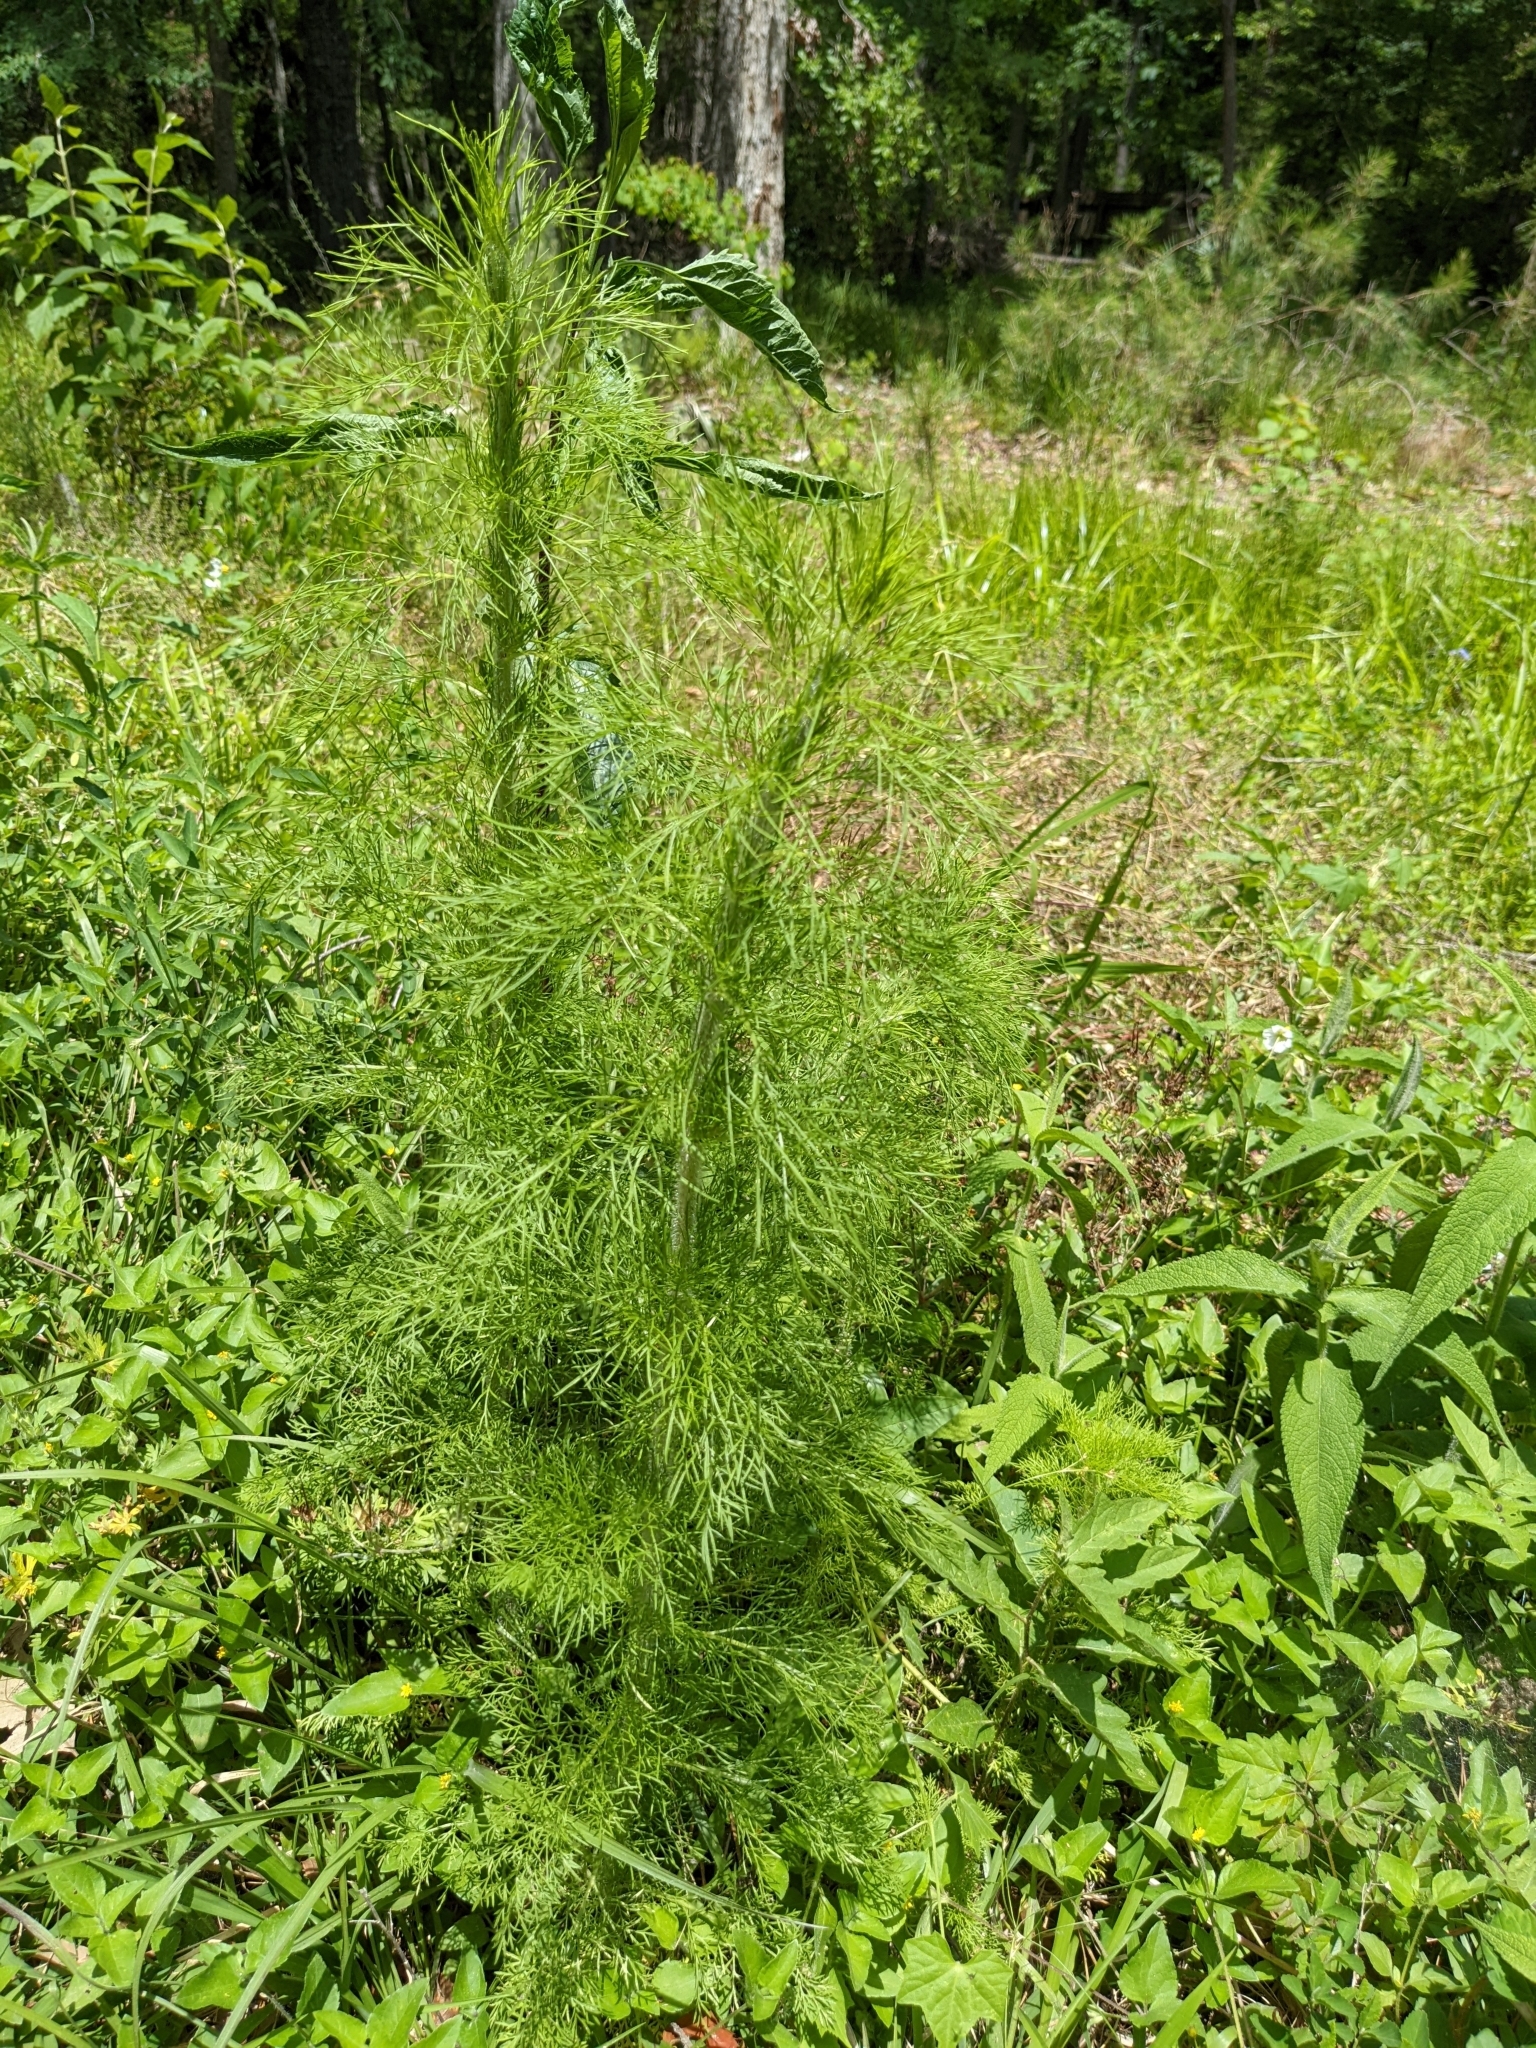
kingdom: Plantae
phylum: Tracheophyta
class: Magnoliopsida
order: Asterales
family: Asteraceae
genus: Eupatorium
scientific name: Eupatorium capillifolium
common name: Dog-fennel
